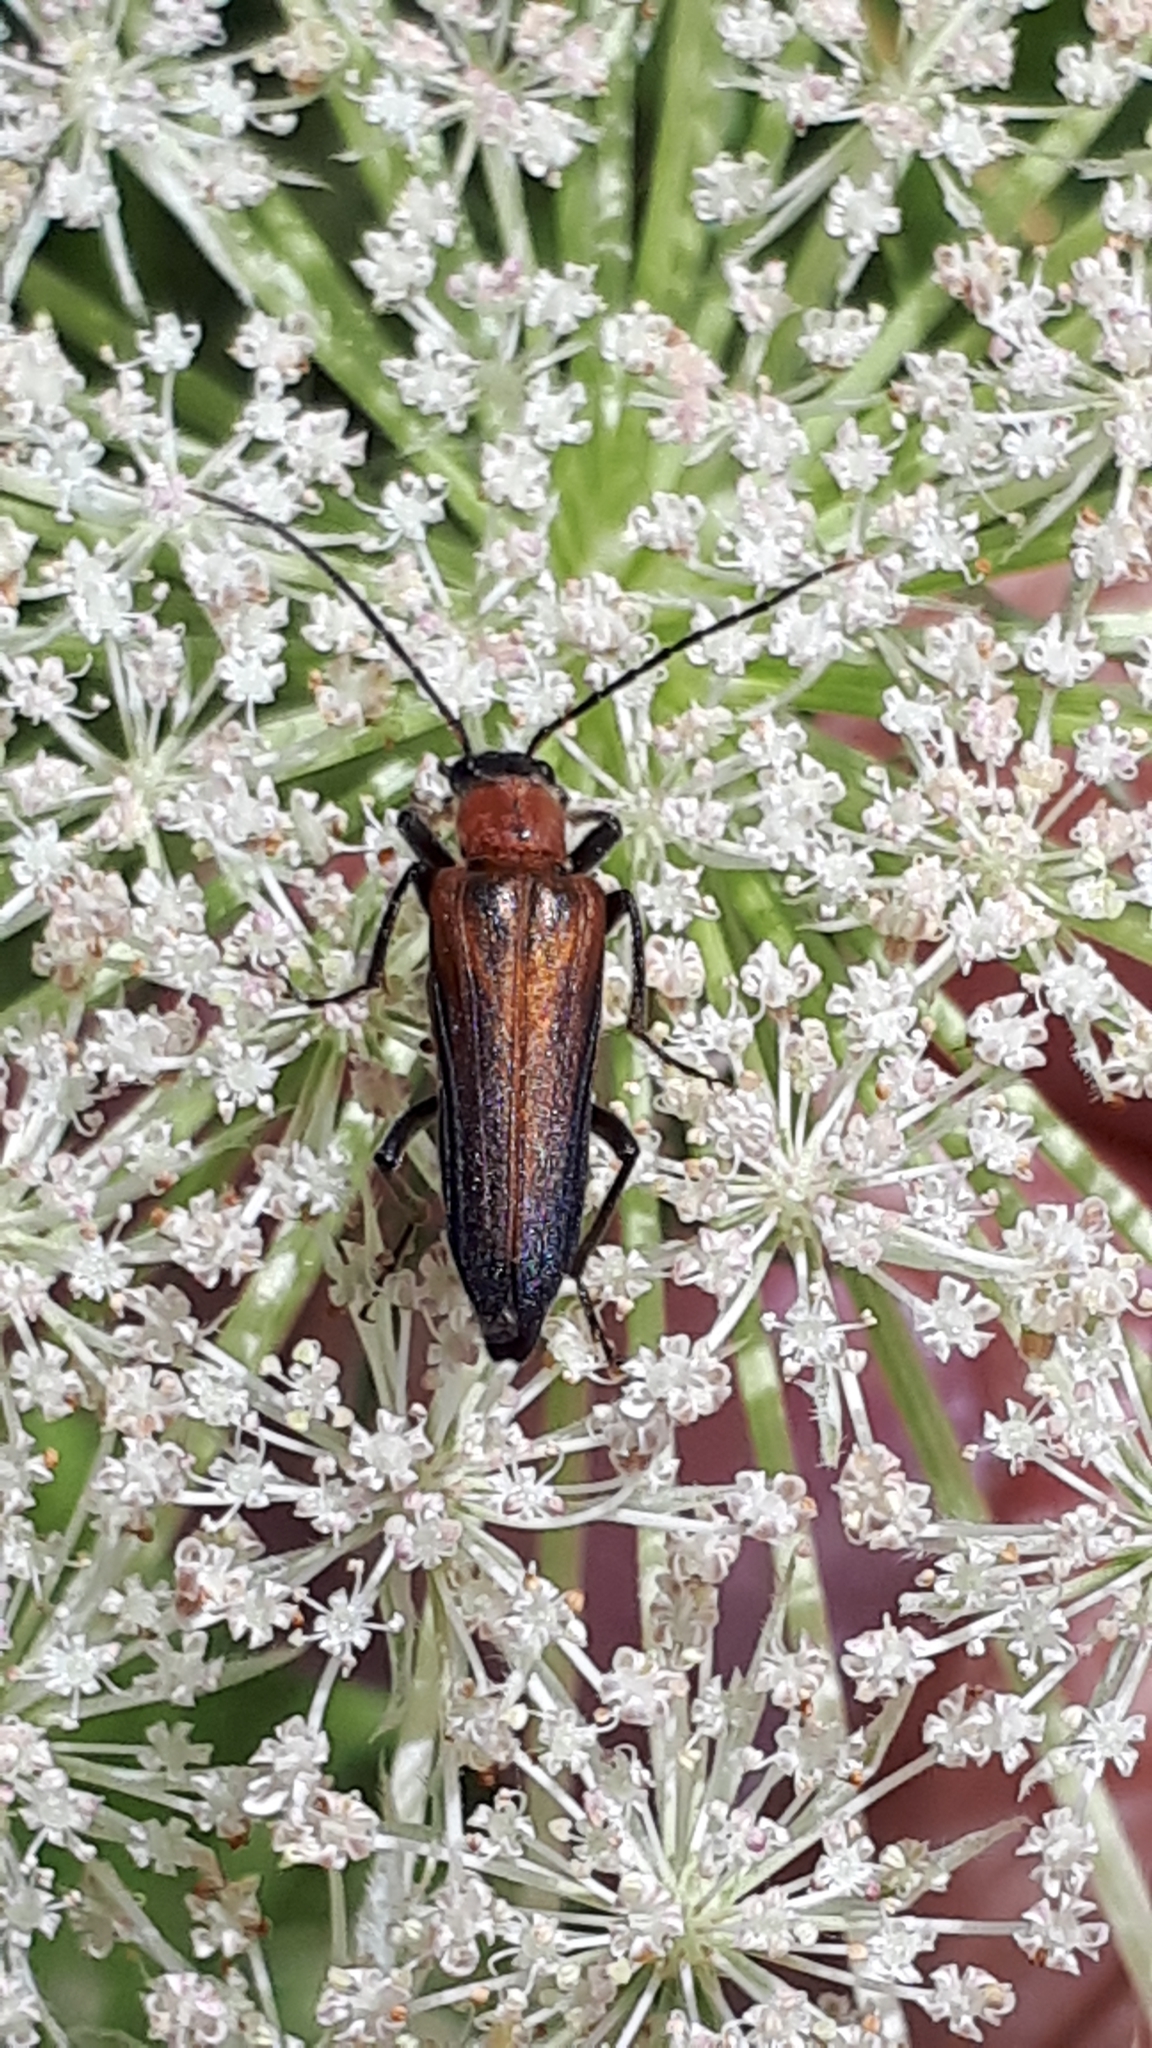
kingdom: Animalia
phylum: Arthropoda
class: Insecta
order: Coleoptera
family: Oedemeridae
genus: Anogcodes
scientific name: Anogcodes rufiventris
